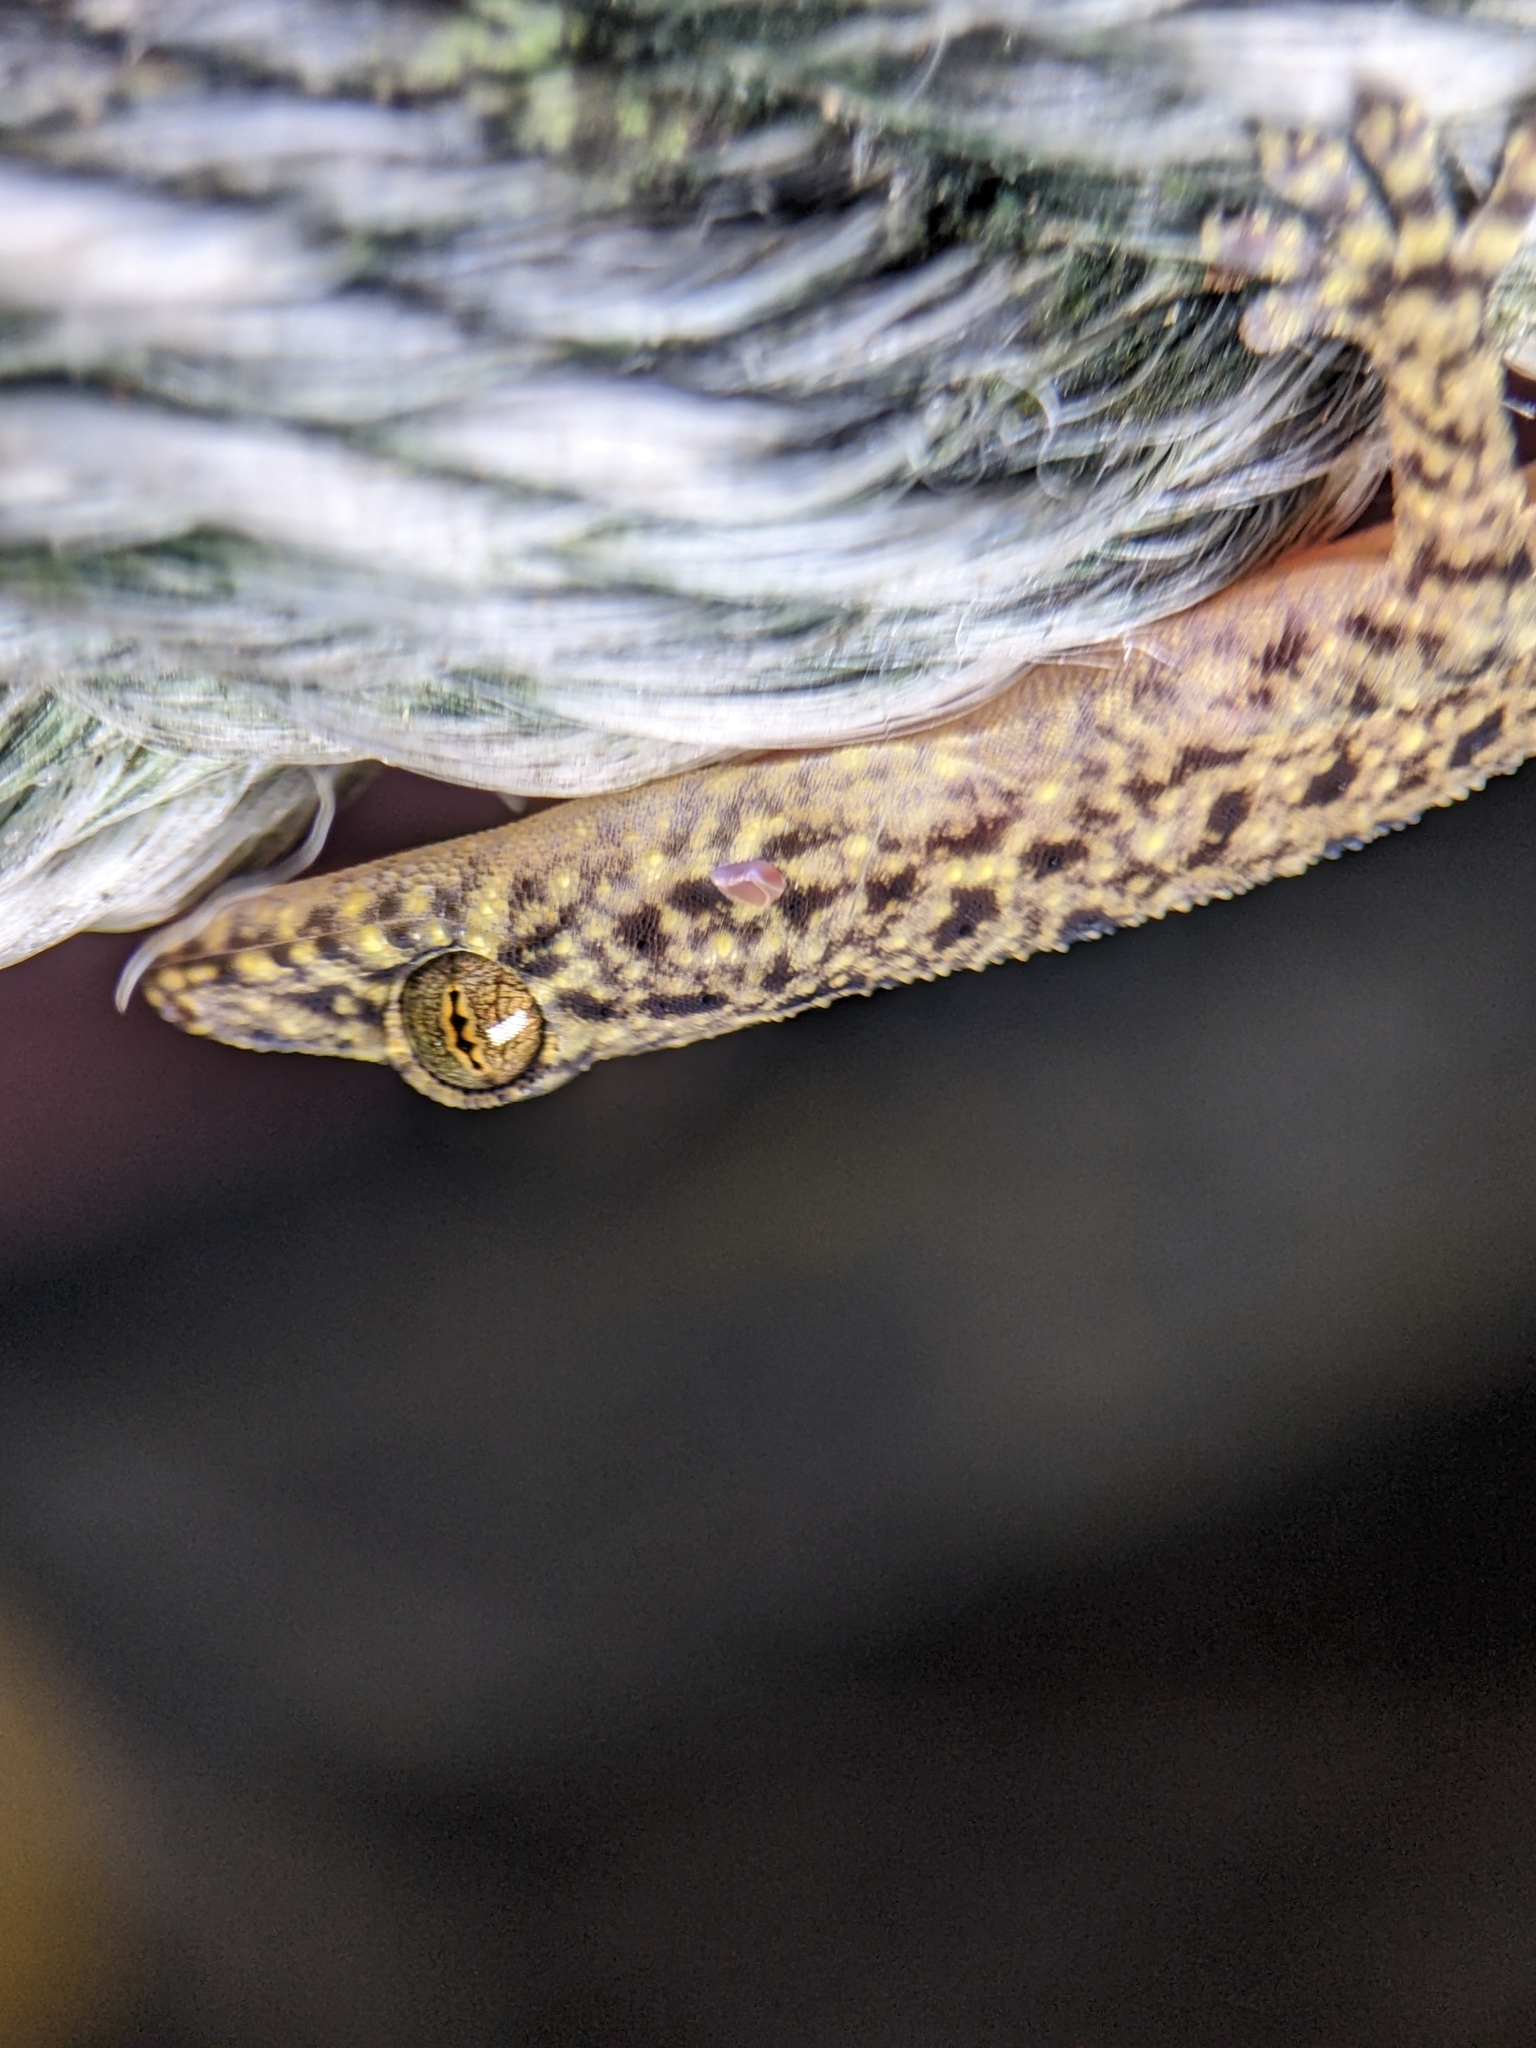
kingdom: Animalia
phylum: Chordata
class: Squamata
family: Gekkonidae
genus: Gekko
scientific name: Gekko monarchus
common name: Spotted house gecko
